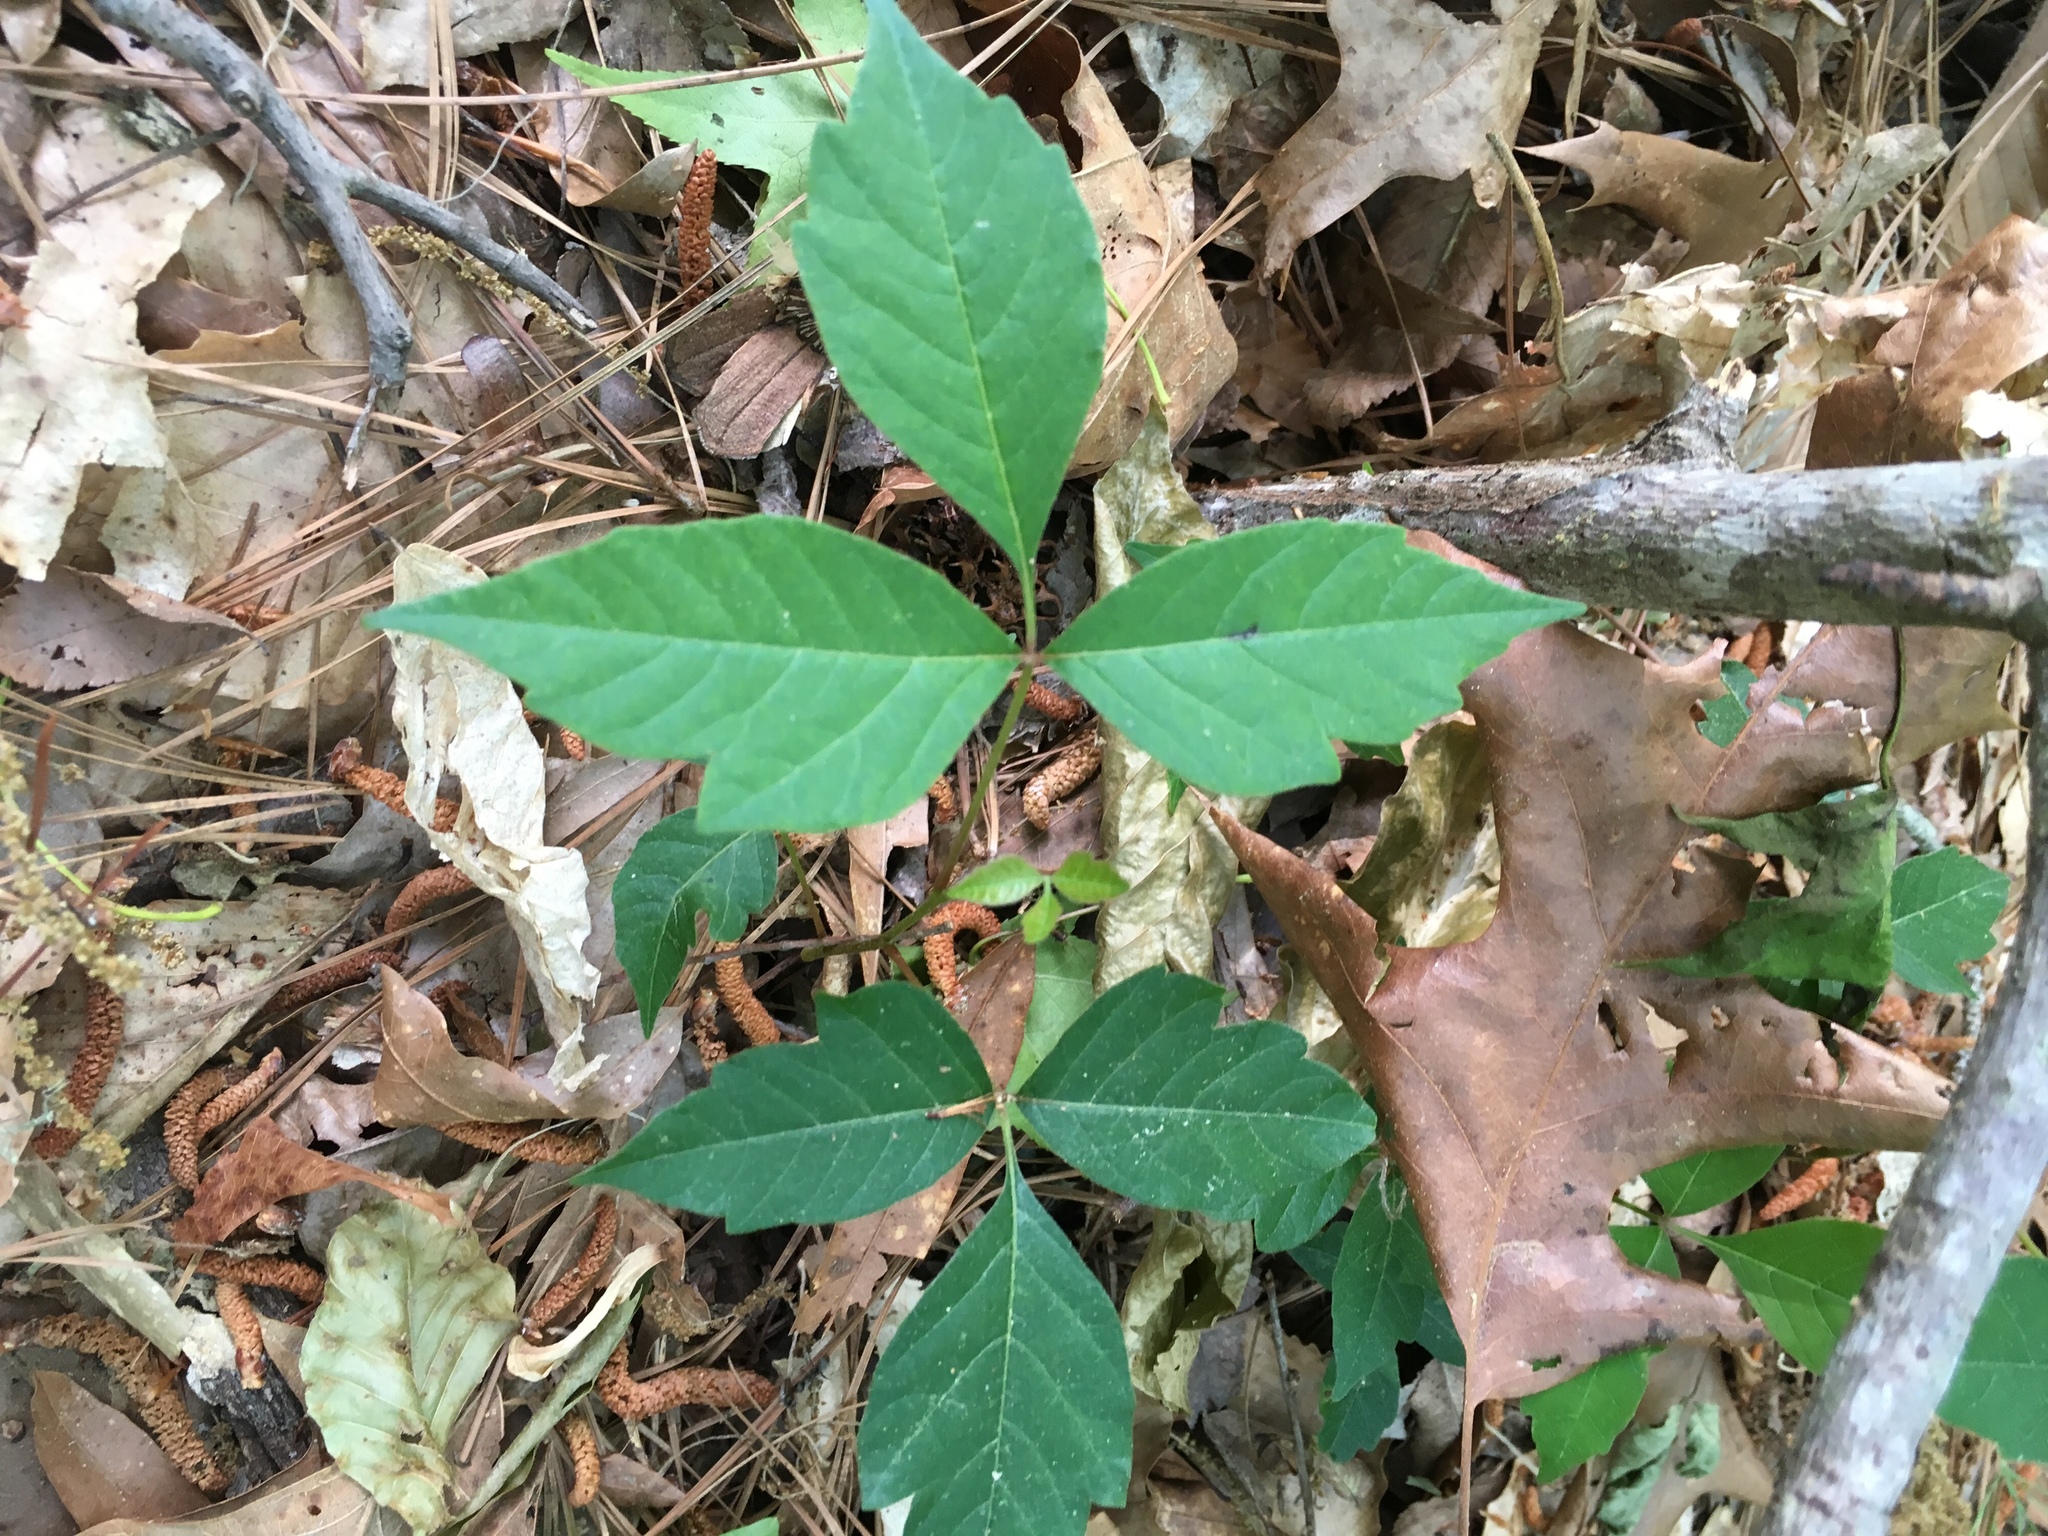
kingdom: Plantae
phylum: Tracheophyta
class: Magnoliopsida
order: Sapindales
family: Anacardiaceae
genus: Toxicodendron
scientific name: Toxicodendron radicans
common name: Poison ivy
